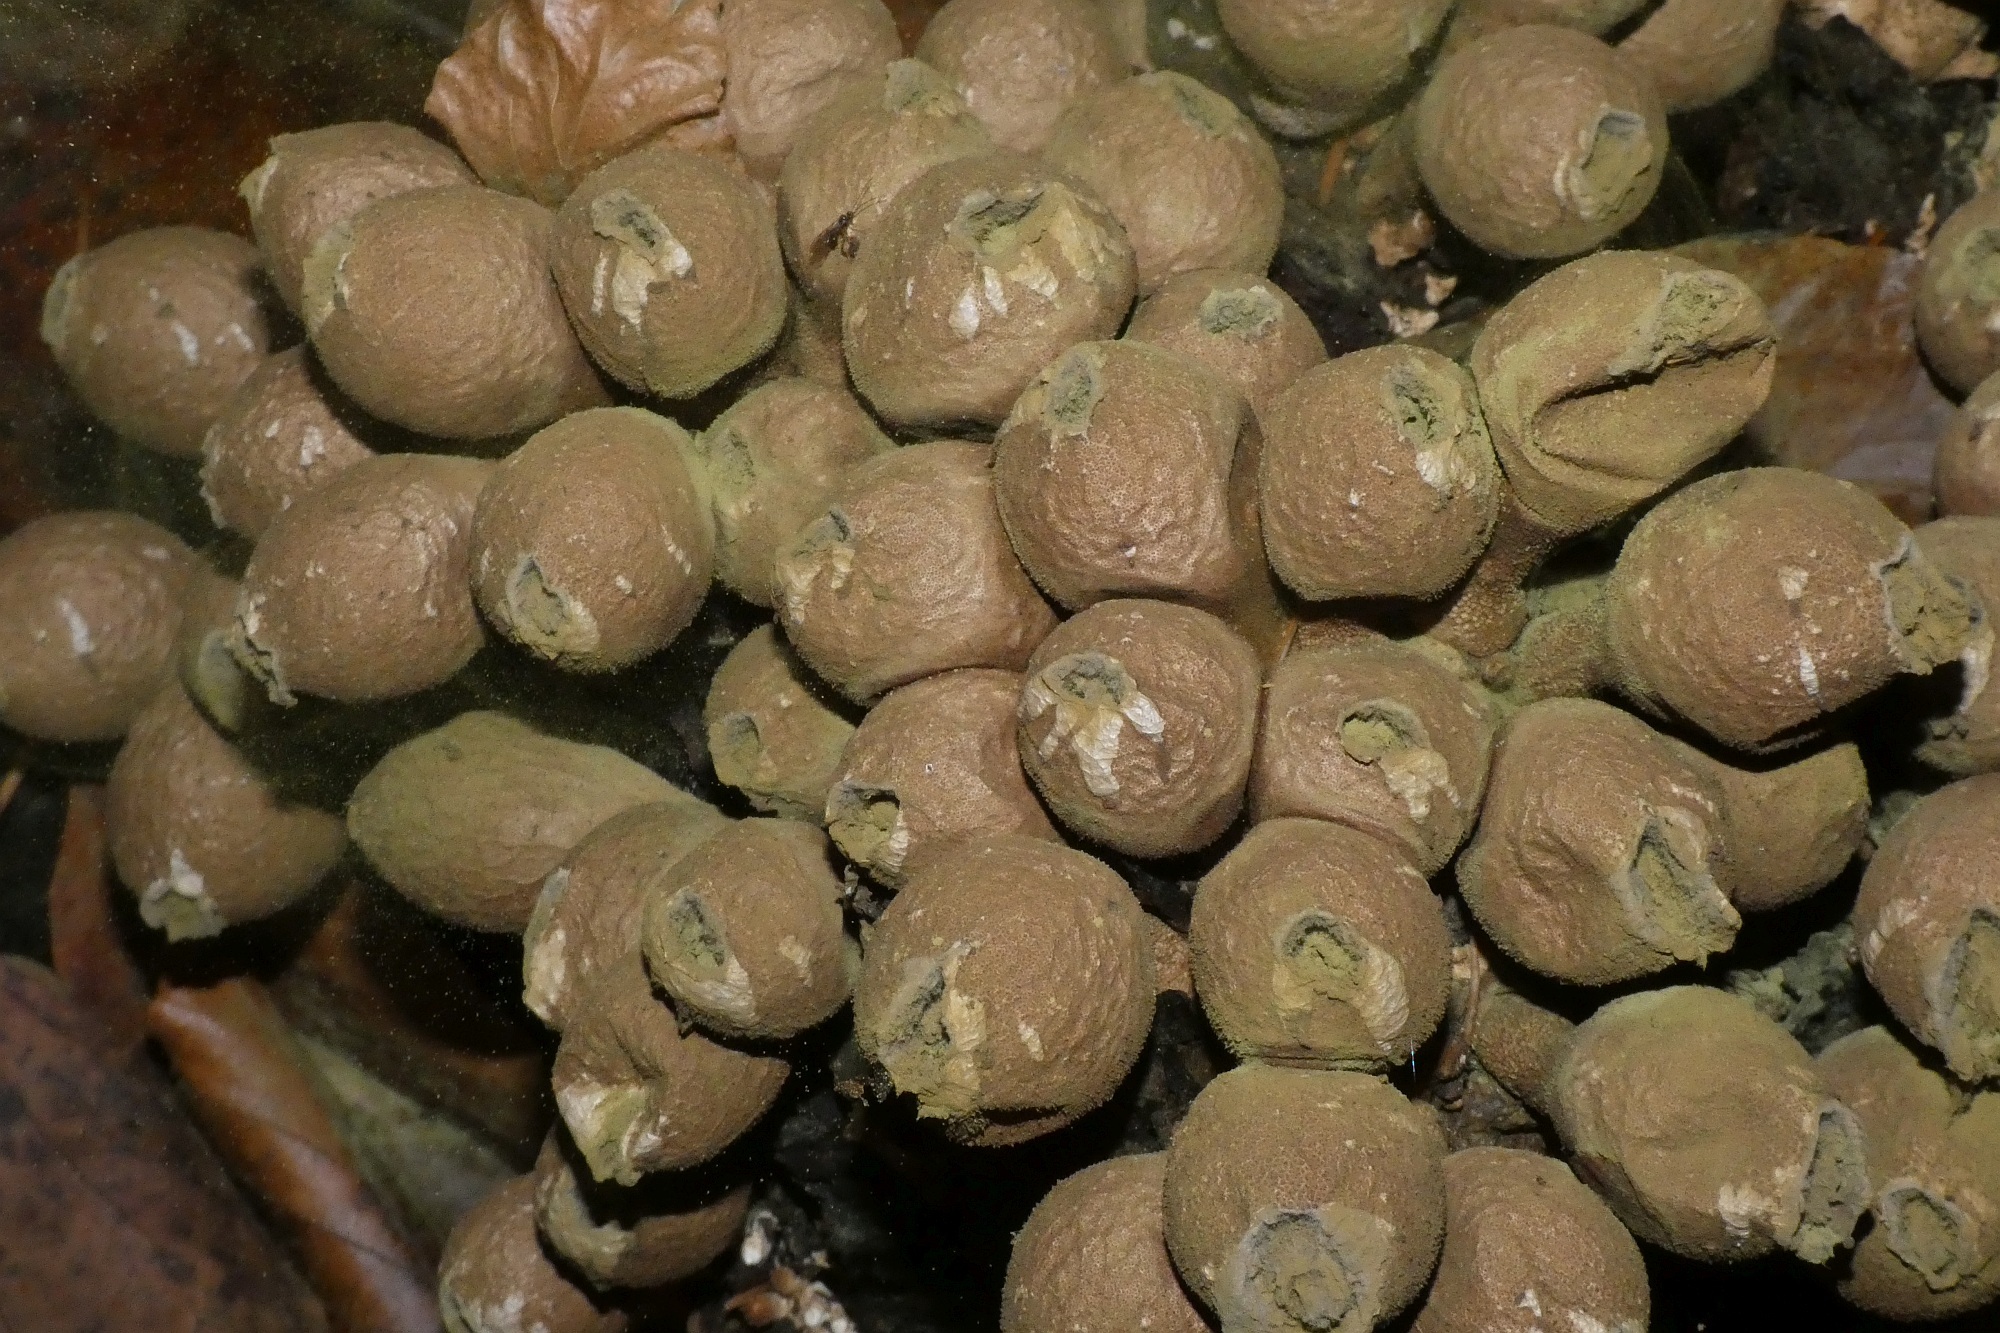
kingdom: Fungi
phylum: Basidiomycota
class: Agaricomycetes
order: Agaricales
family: Lycoperdaceae
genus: Apioperdon
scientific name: Apioperdon pyriforme
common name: Pear-shaped puffball
